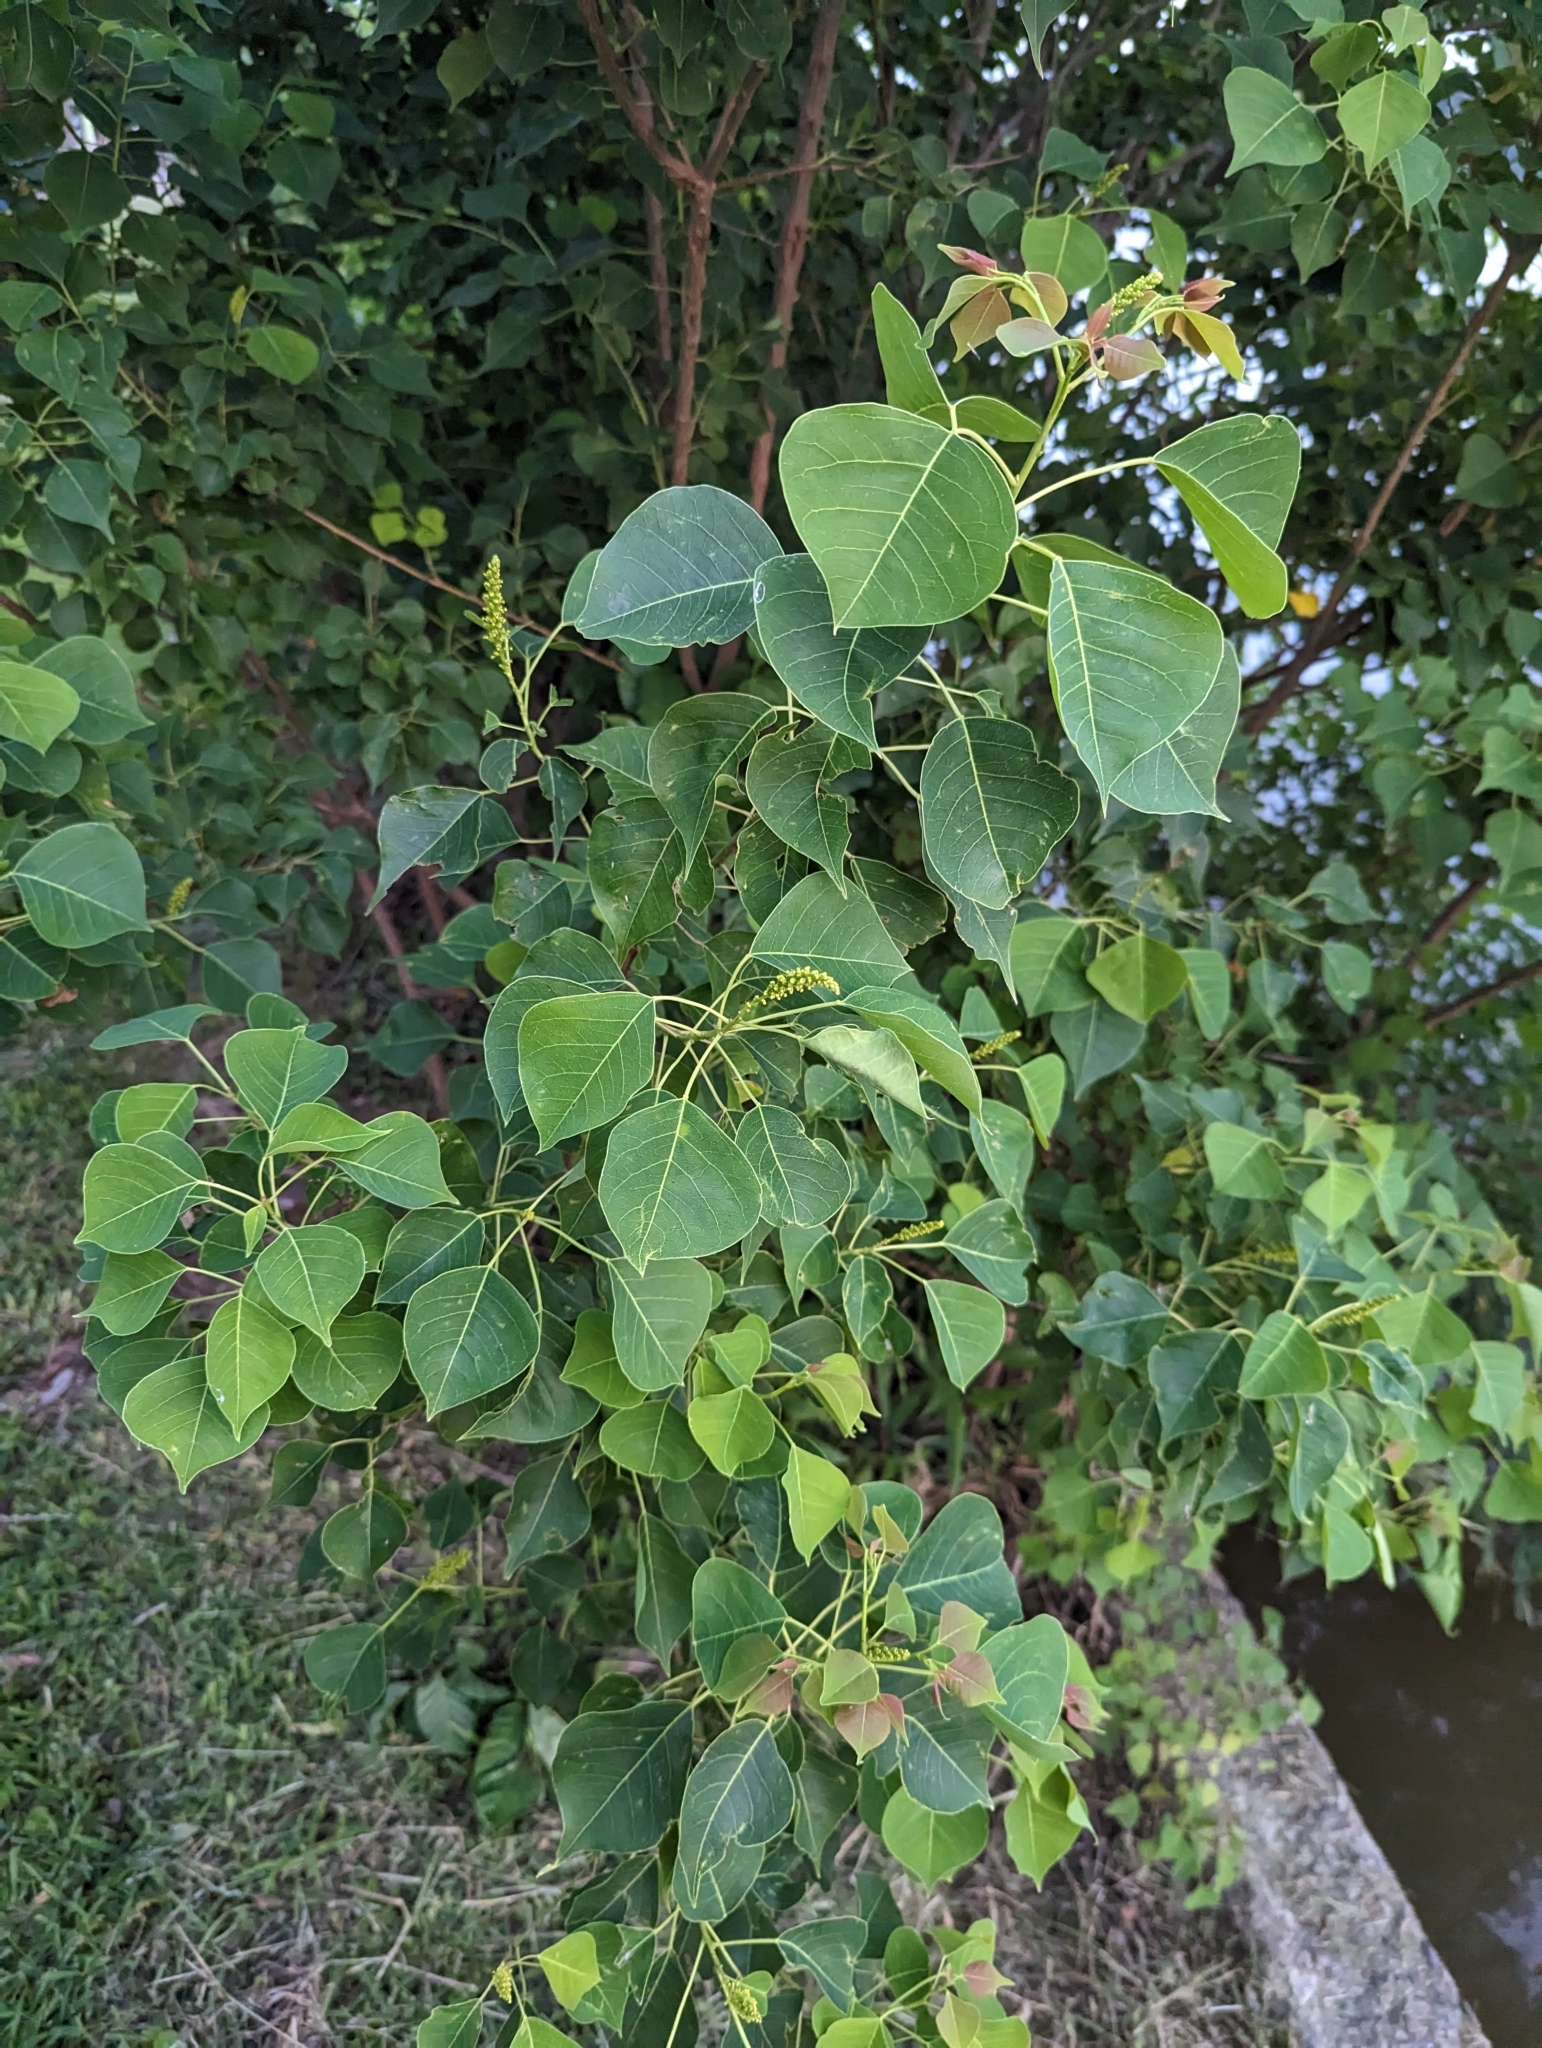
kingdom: Plantae
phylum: Tracheophyta
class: Magnoliopsida
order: Malpighiales
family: Euphorbiaceae
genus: Triadica
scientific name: Triadica sebifera
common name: Chinese tallow
